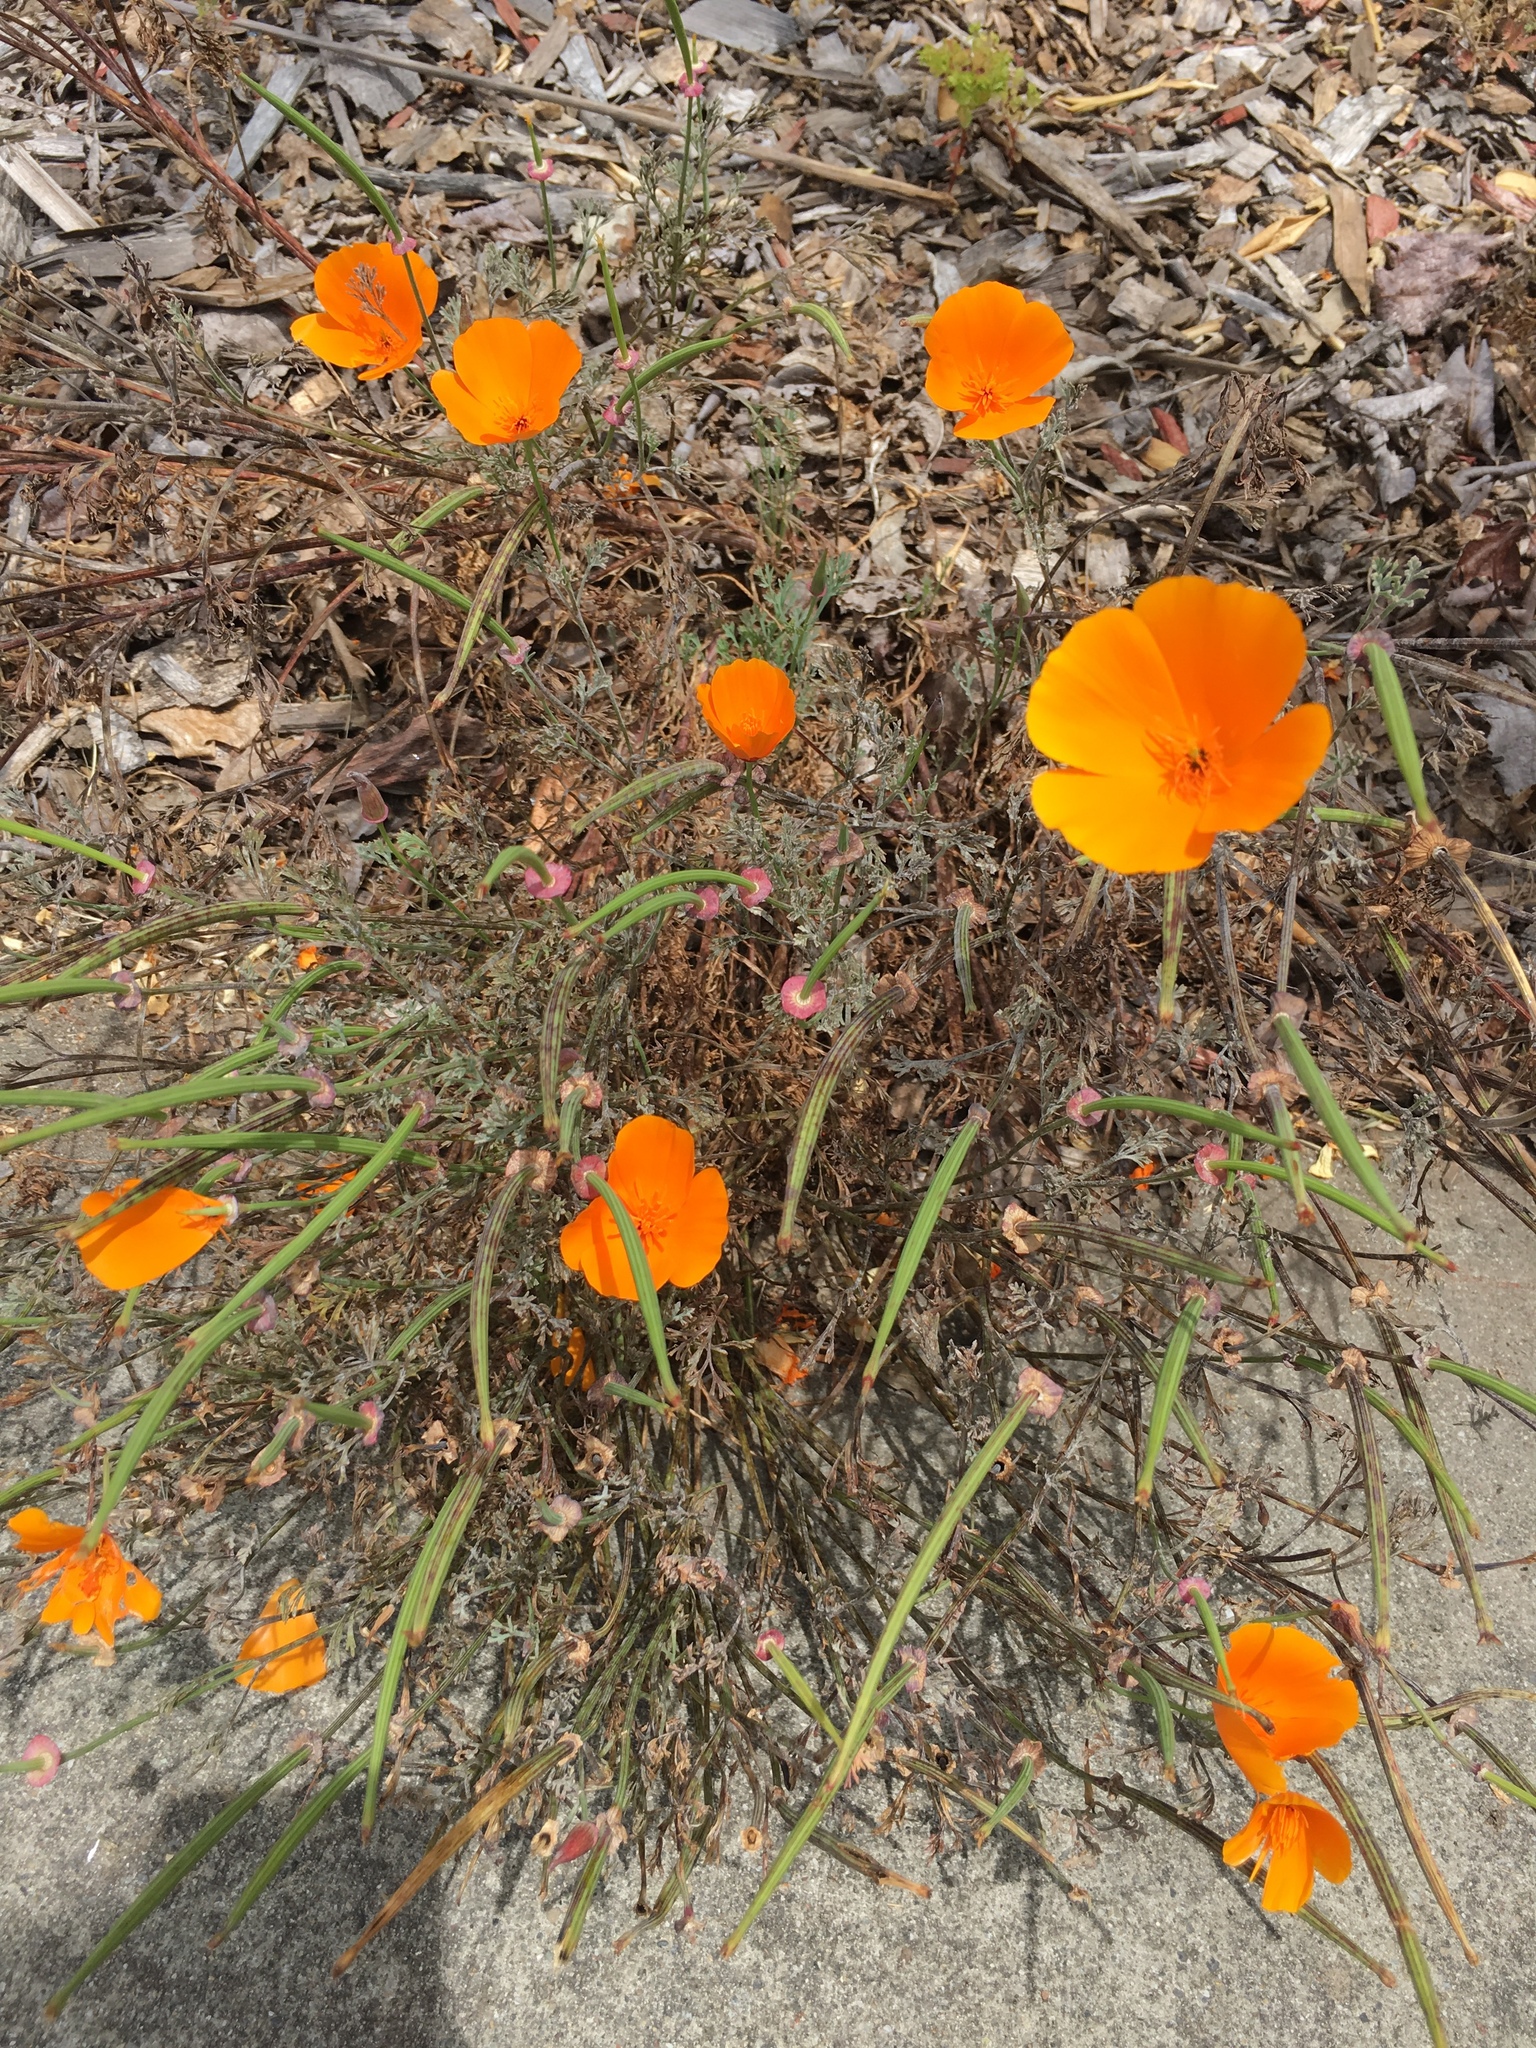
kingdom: Plantae
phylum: Tracheophyta
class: Magnoliopsida
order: Ranunculales
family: Papaveraceae
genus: Eschscholzia
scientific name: Eschscholzia californica
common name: California poppy
